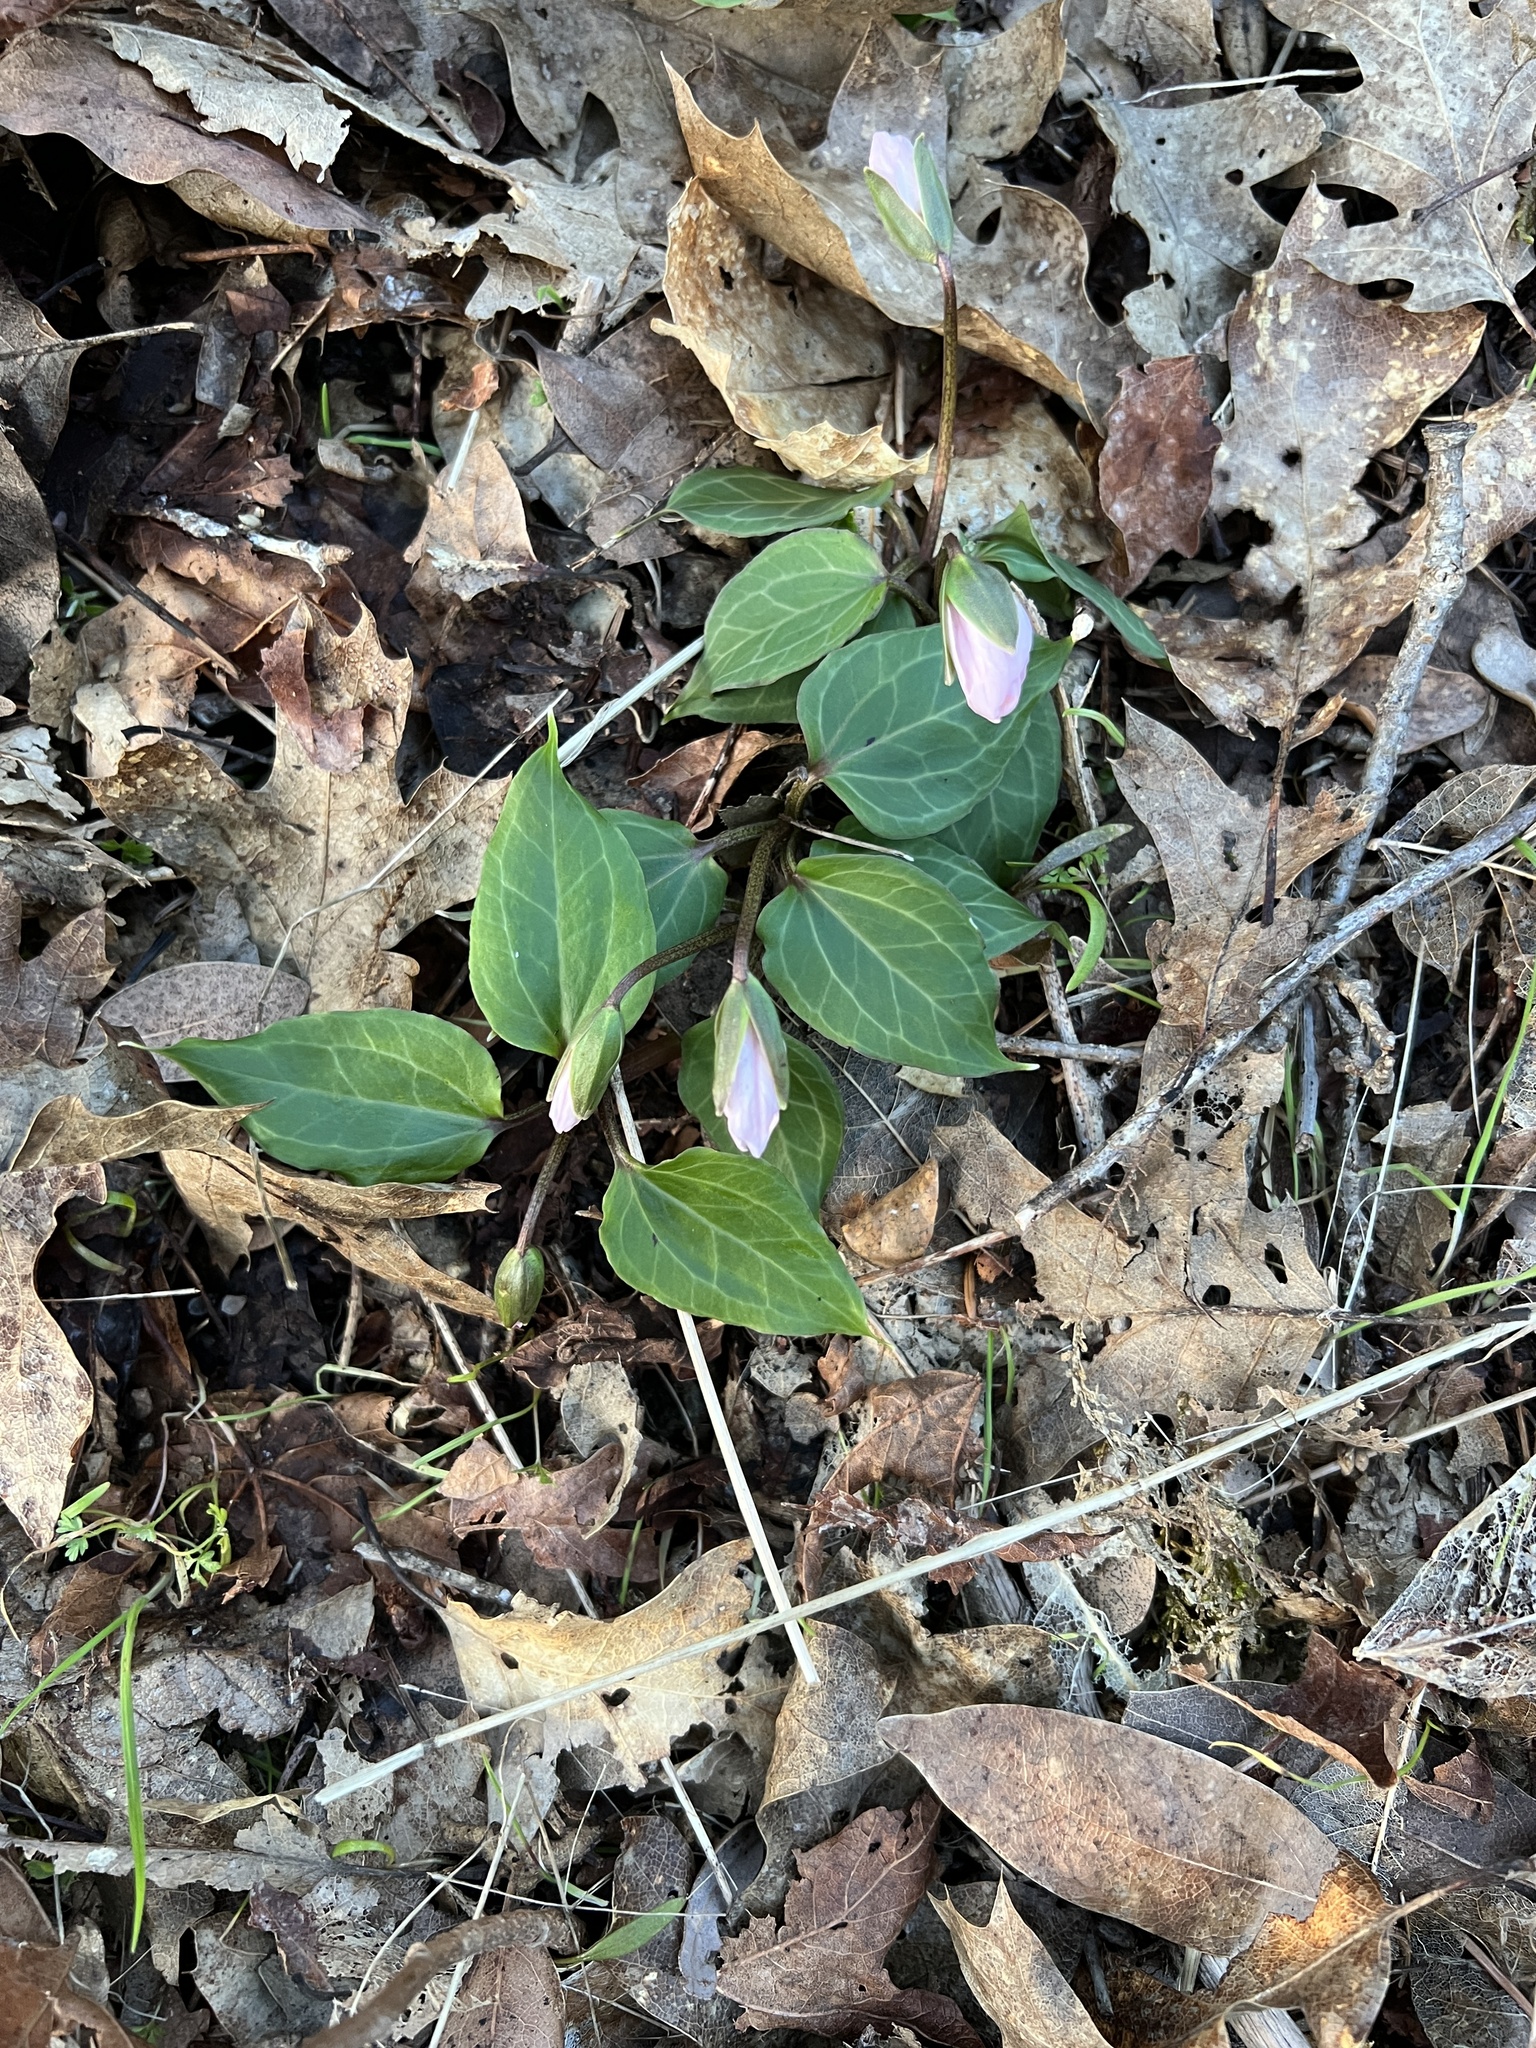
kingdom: Plantae
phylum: Tracheophyta
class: Liliopsida
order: Liliales
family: Melanthiaceae
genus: Pseudotrillium
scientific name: Pseudotrillium rivale
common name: Brook wakerobin
